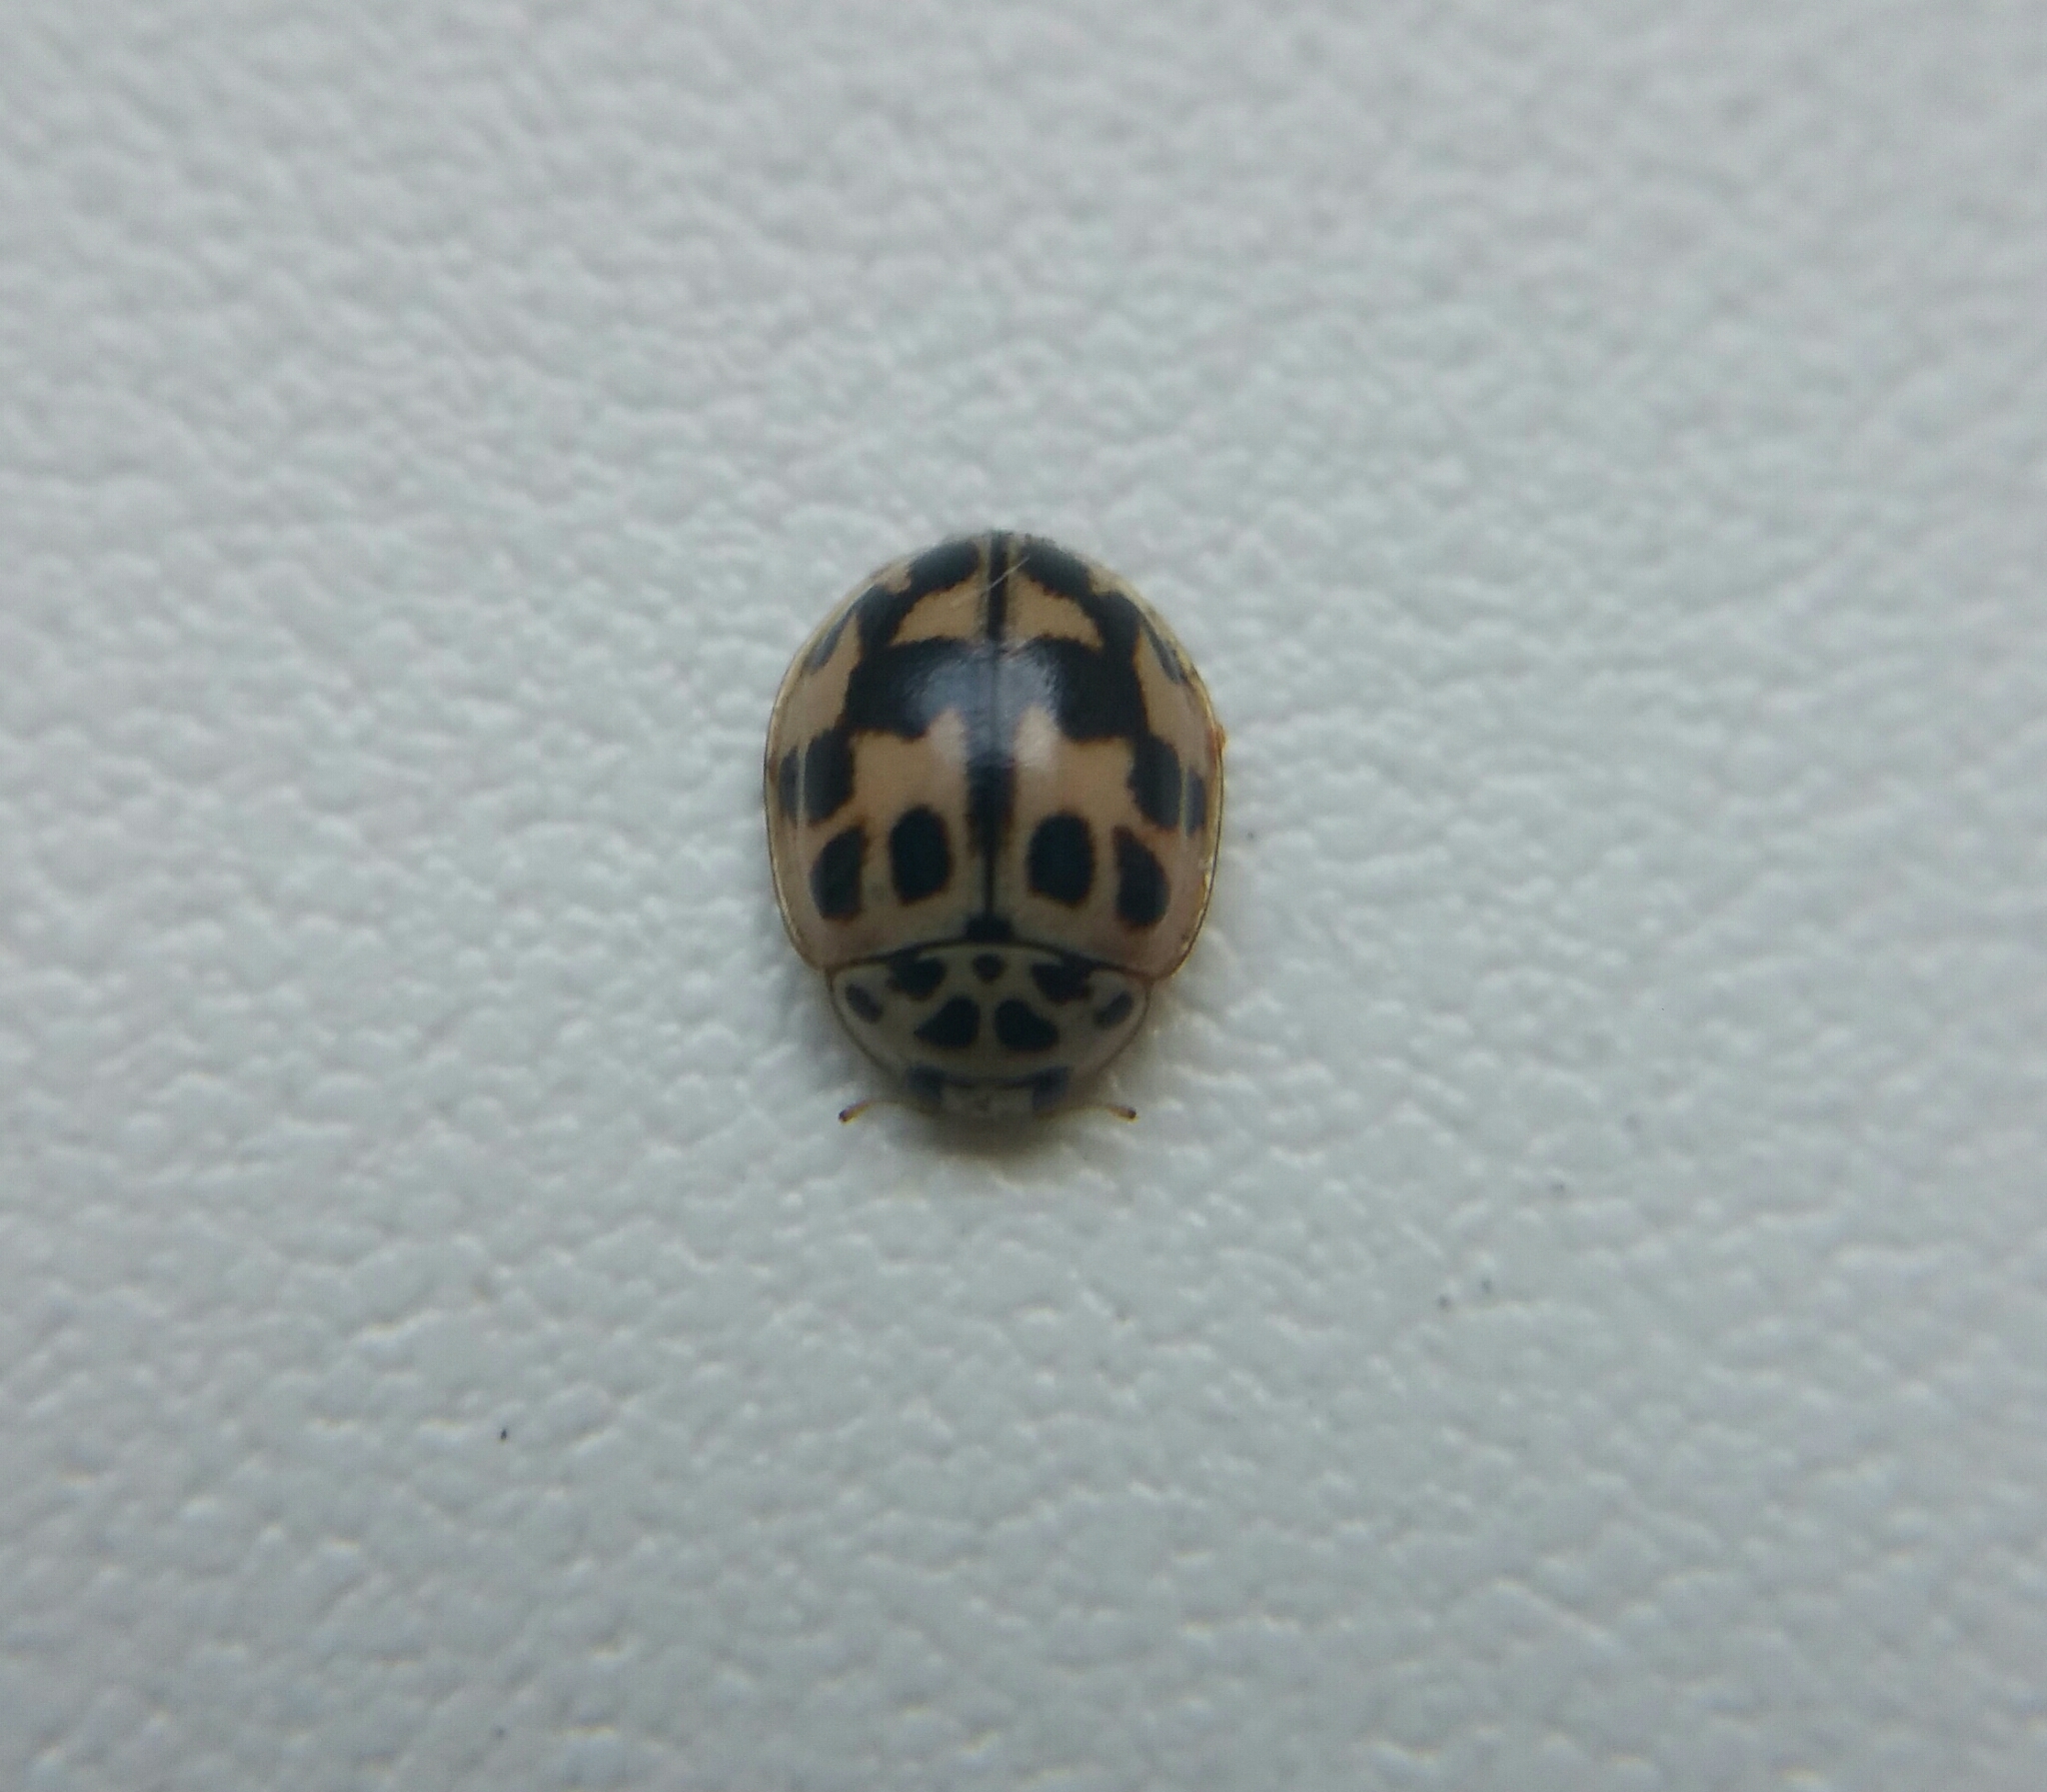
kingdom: Animalia
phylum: Arthropoda
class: Insecta
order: Coleoptera
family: Coccinellidae
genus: Oenopia
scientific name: Oenopia conglobata
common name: Ladybird beetle
